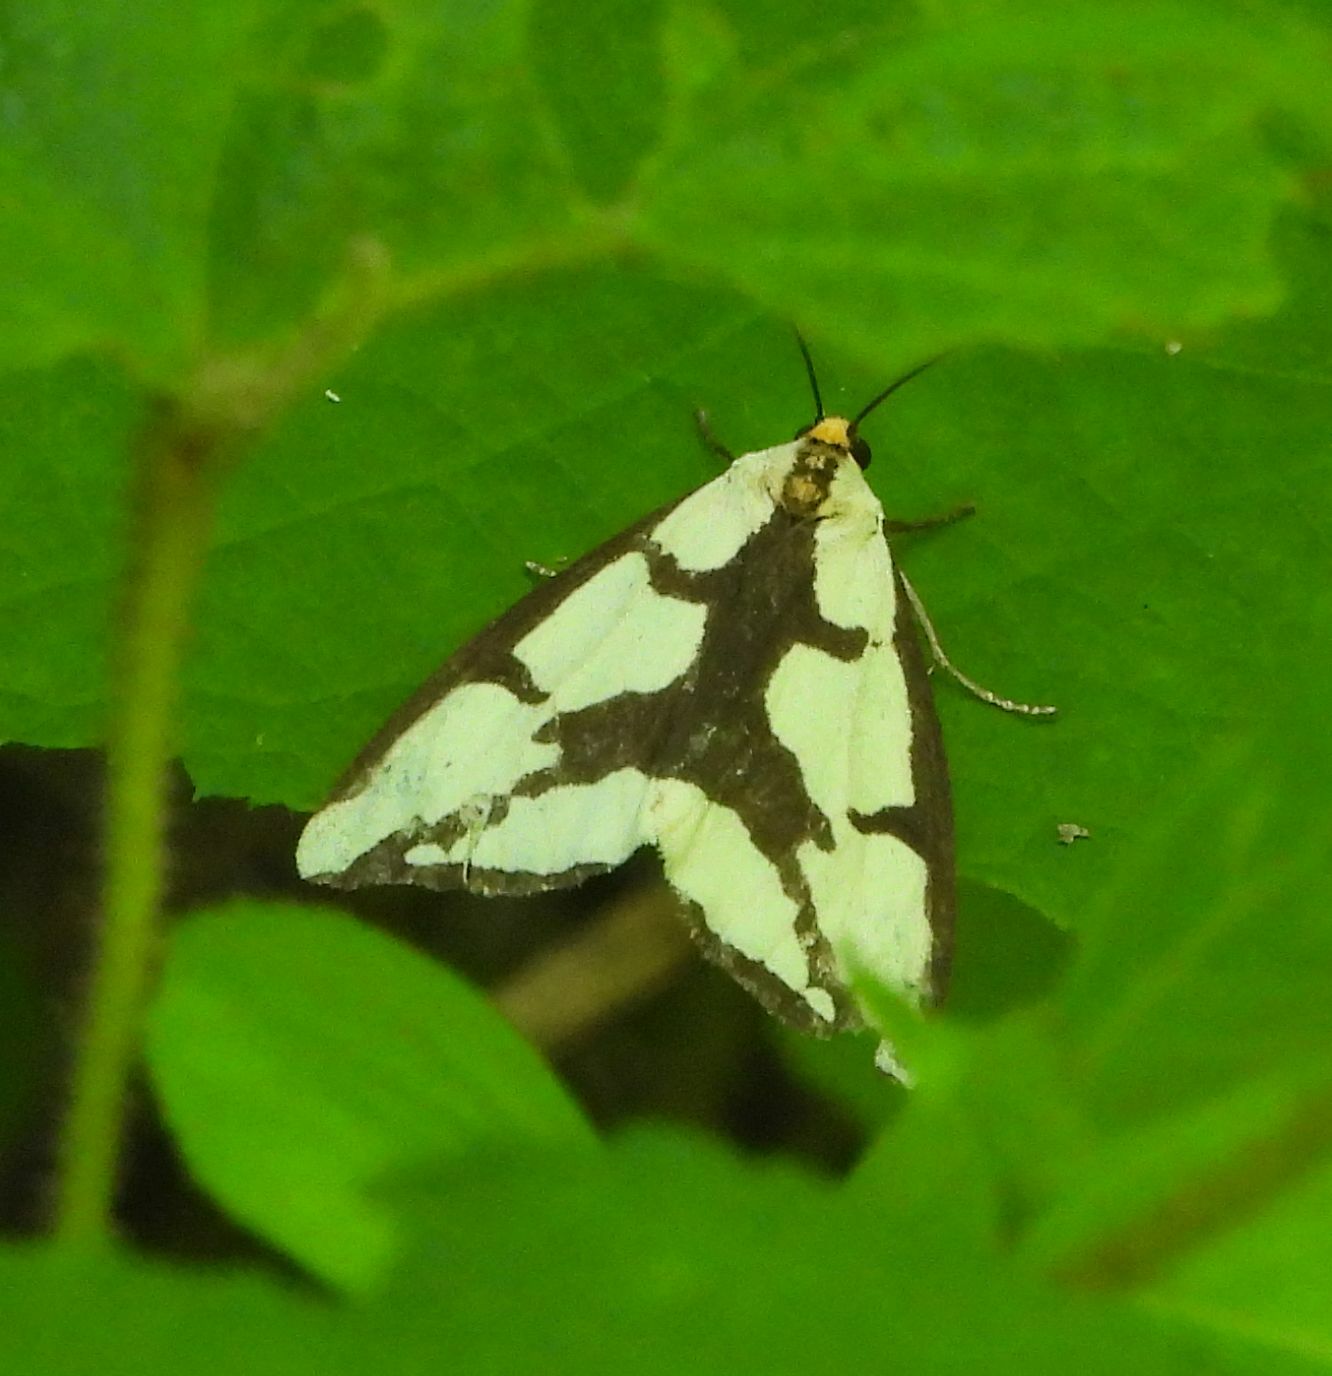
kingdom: Animalia
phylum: Arthropoda
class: Insecta
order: Lepidoptera
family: Erebidae
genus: Haploa
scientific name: Haploa lecontei
